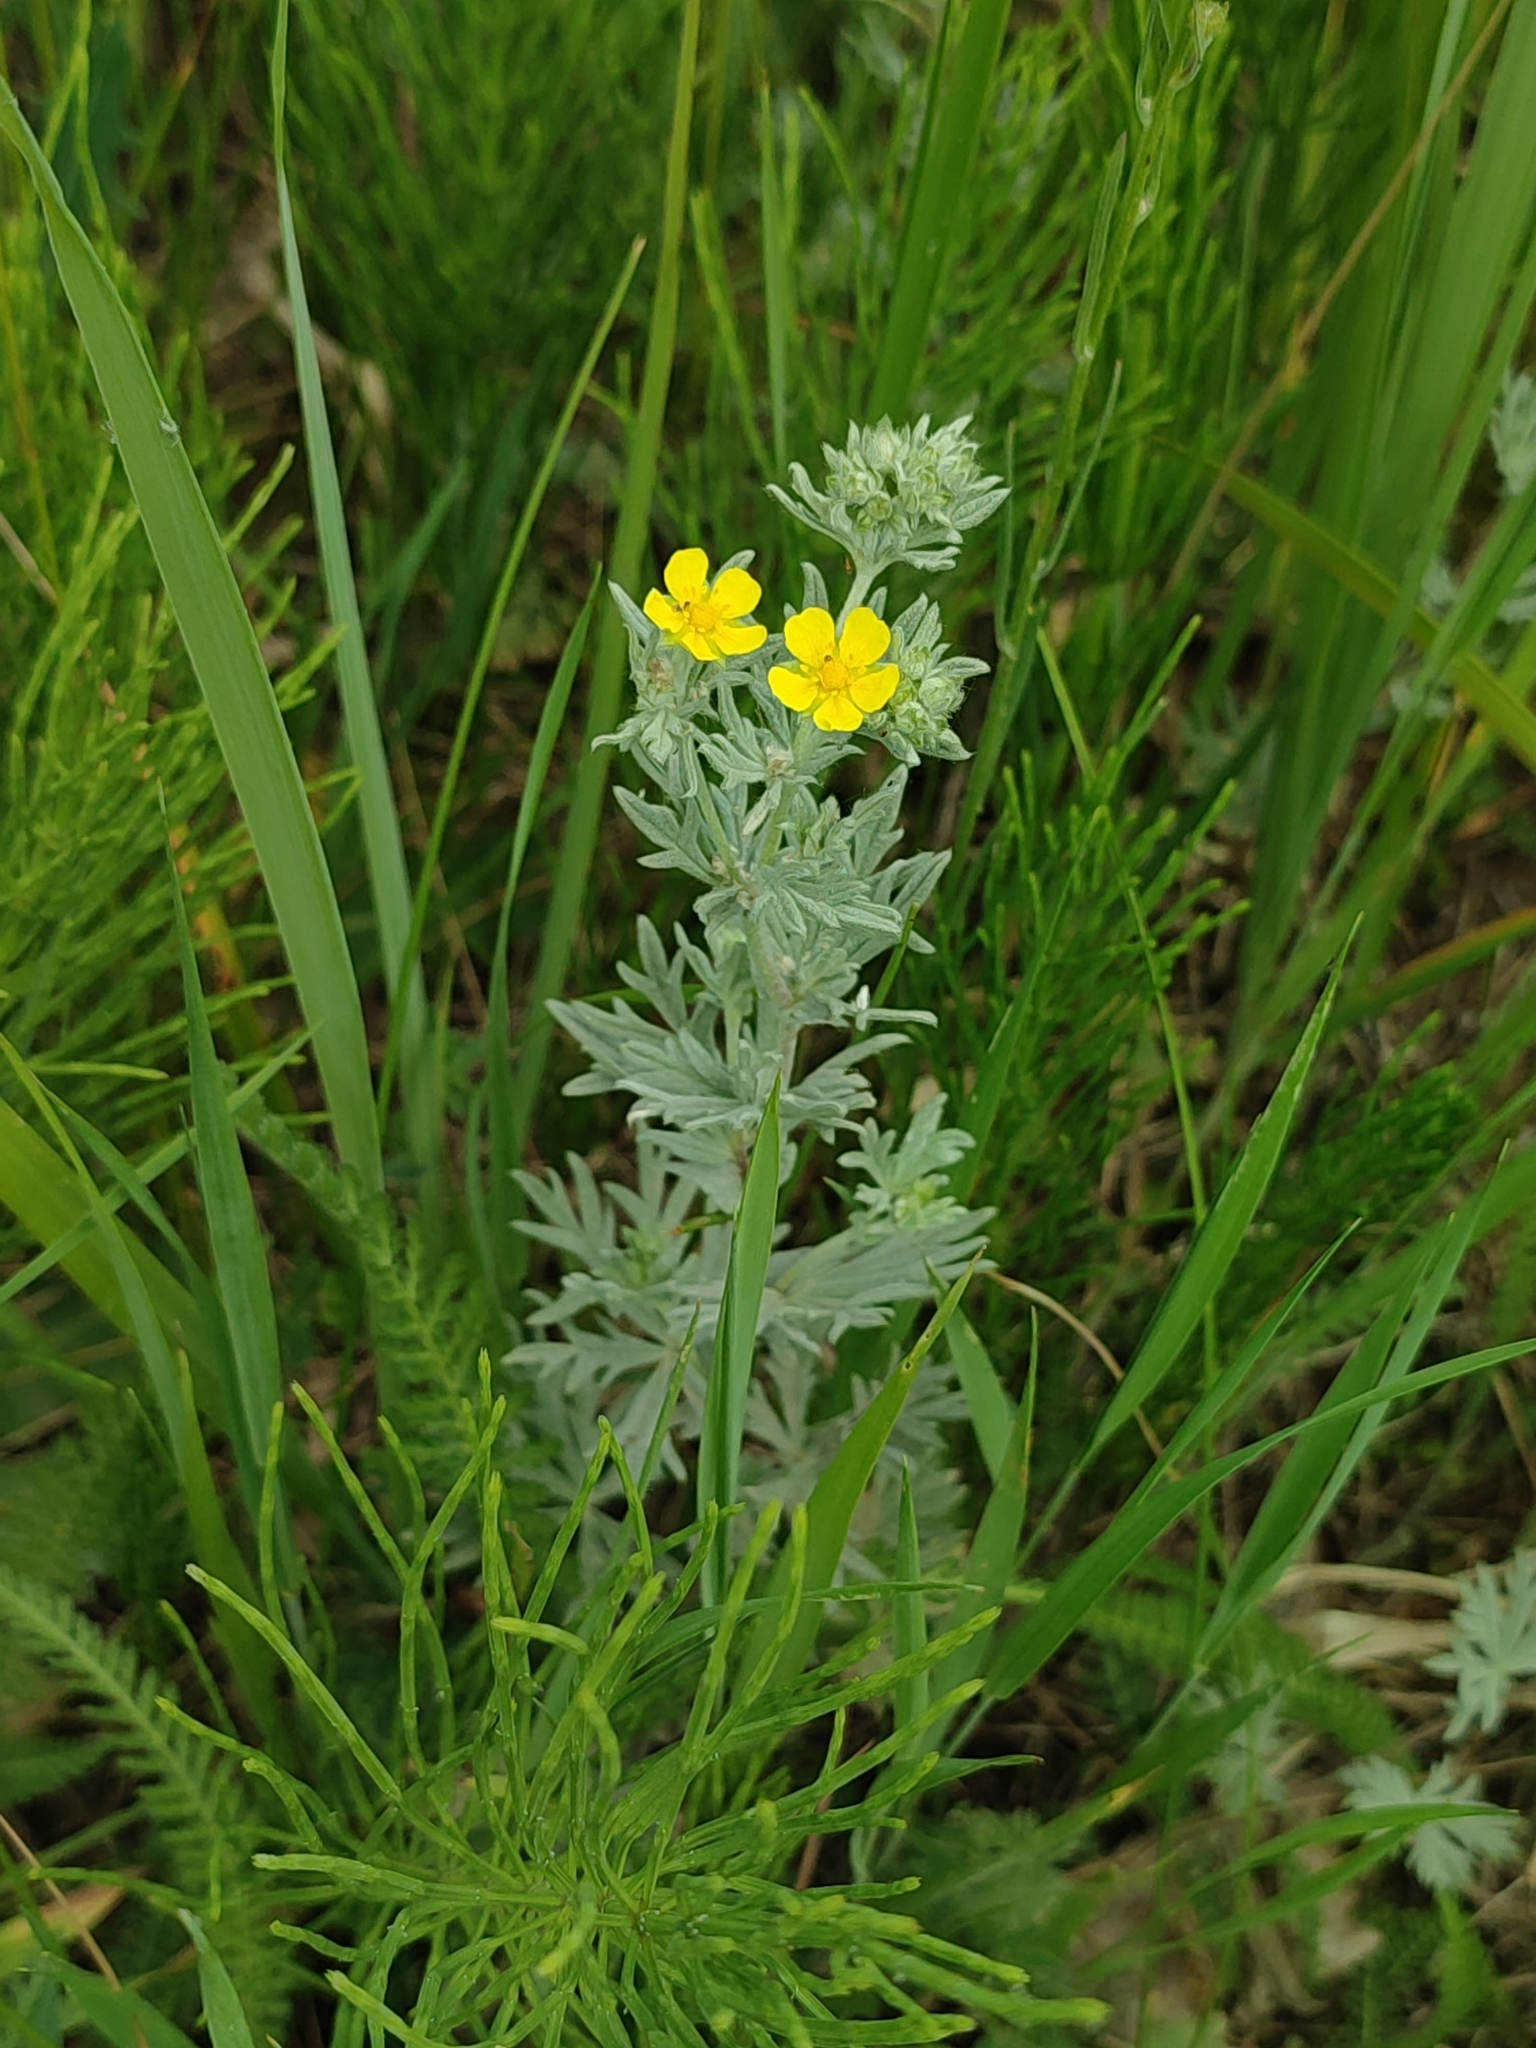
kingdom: Plantae
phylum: Tracheophyta
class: Magnoliopsida
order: Rosales
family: Rosaceae
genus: Potentilla
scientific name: Potentilla argentea
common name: Hoary cinquefoil
